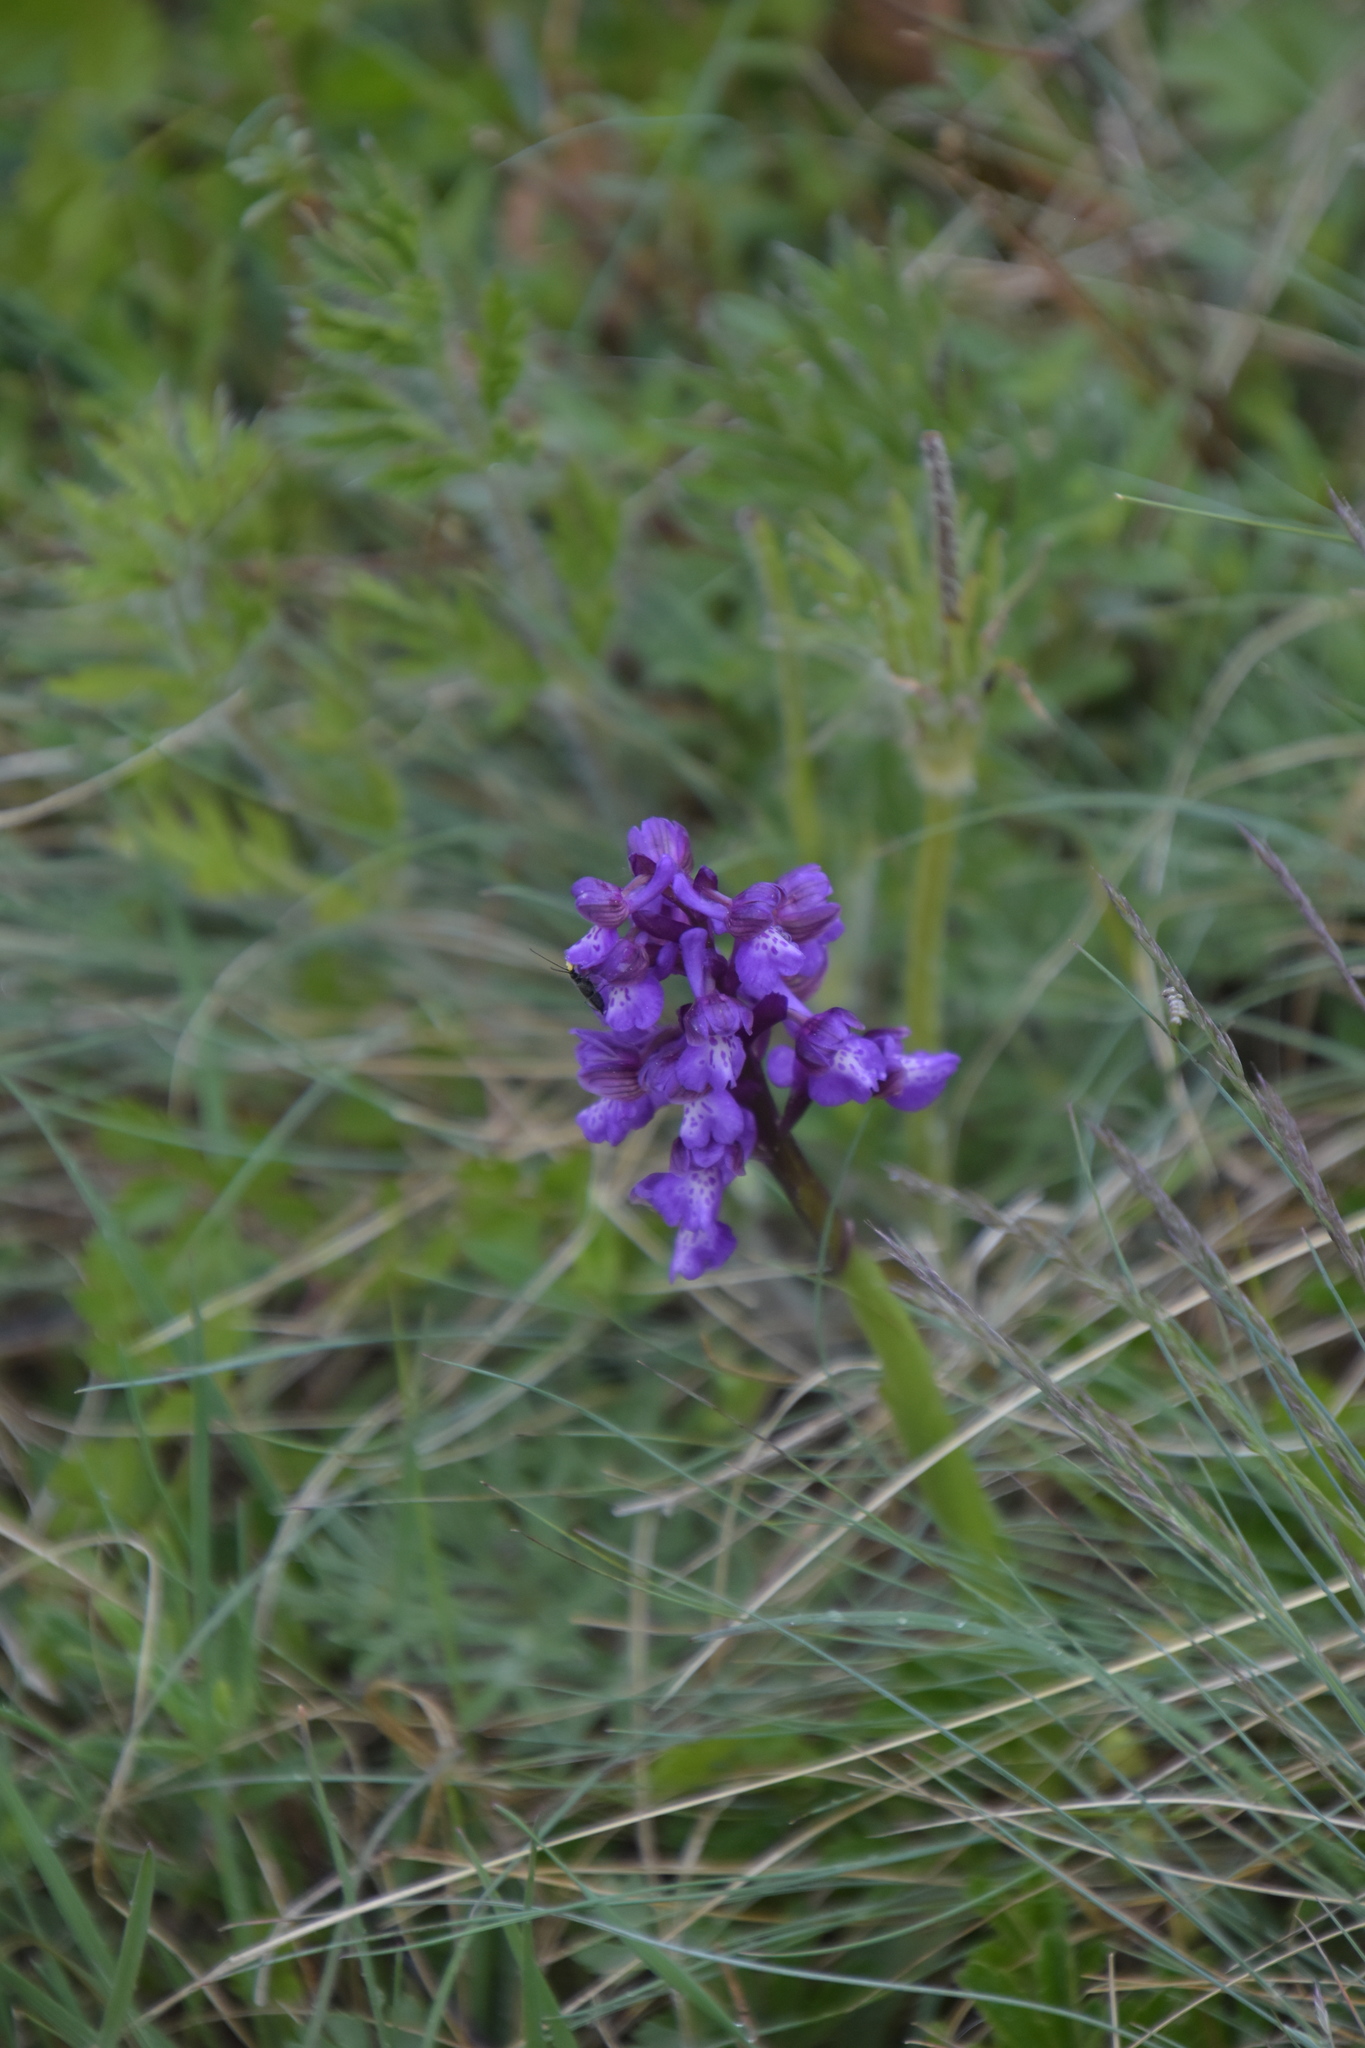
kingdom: Plantae
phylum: Tracheophyta
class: Liliopsida
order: Asparagales
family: Orchidaceae
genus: Anacamptis
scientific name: Anacamptis morio
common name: Green-winged orchid
